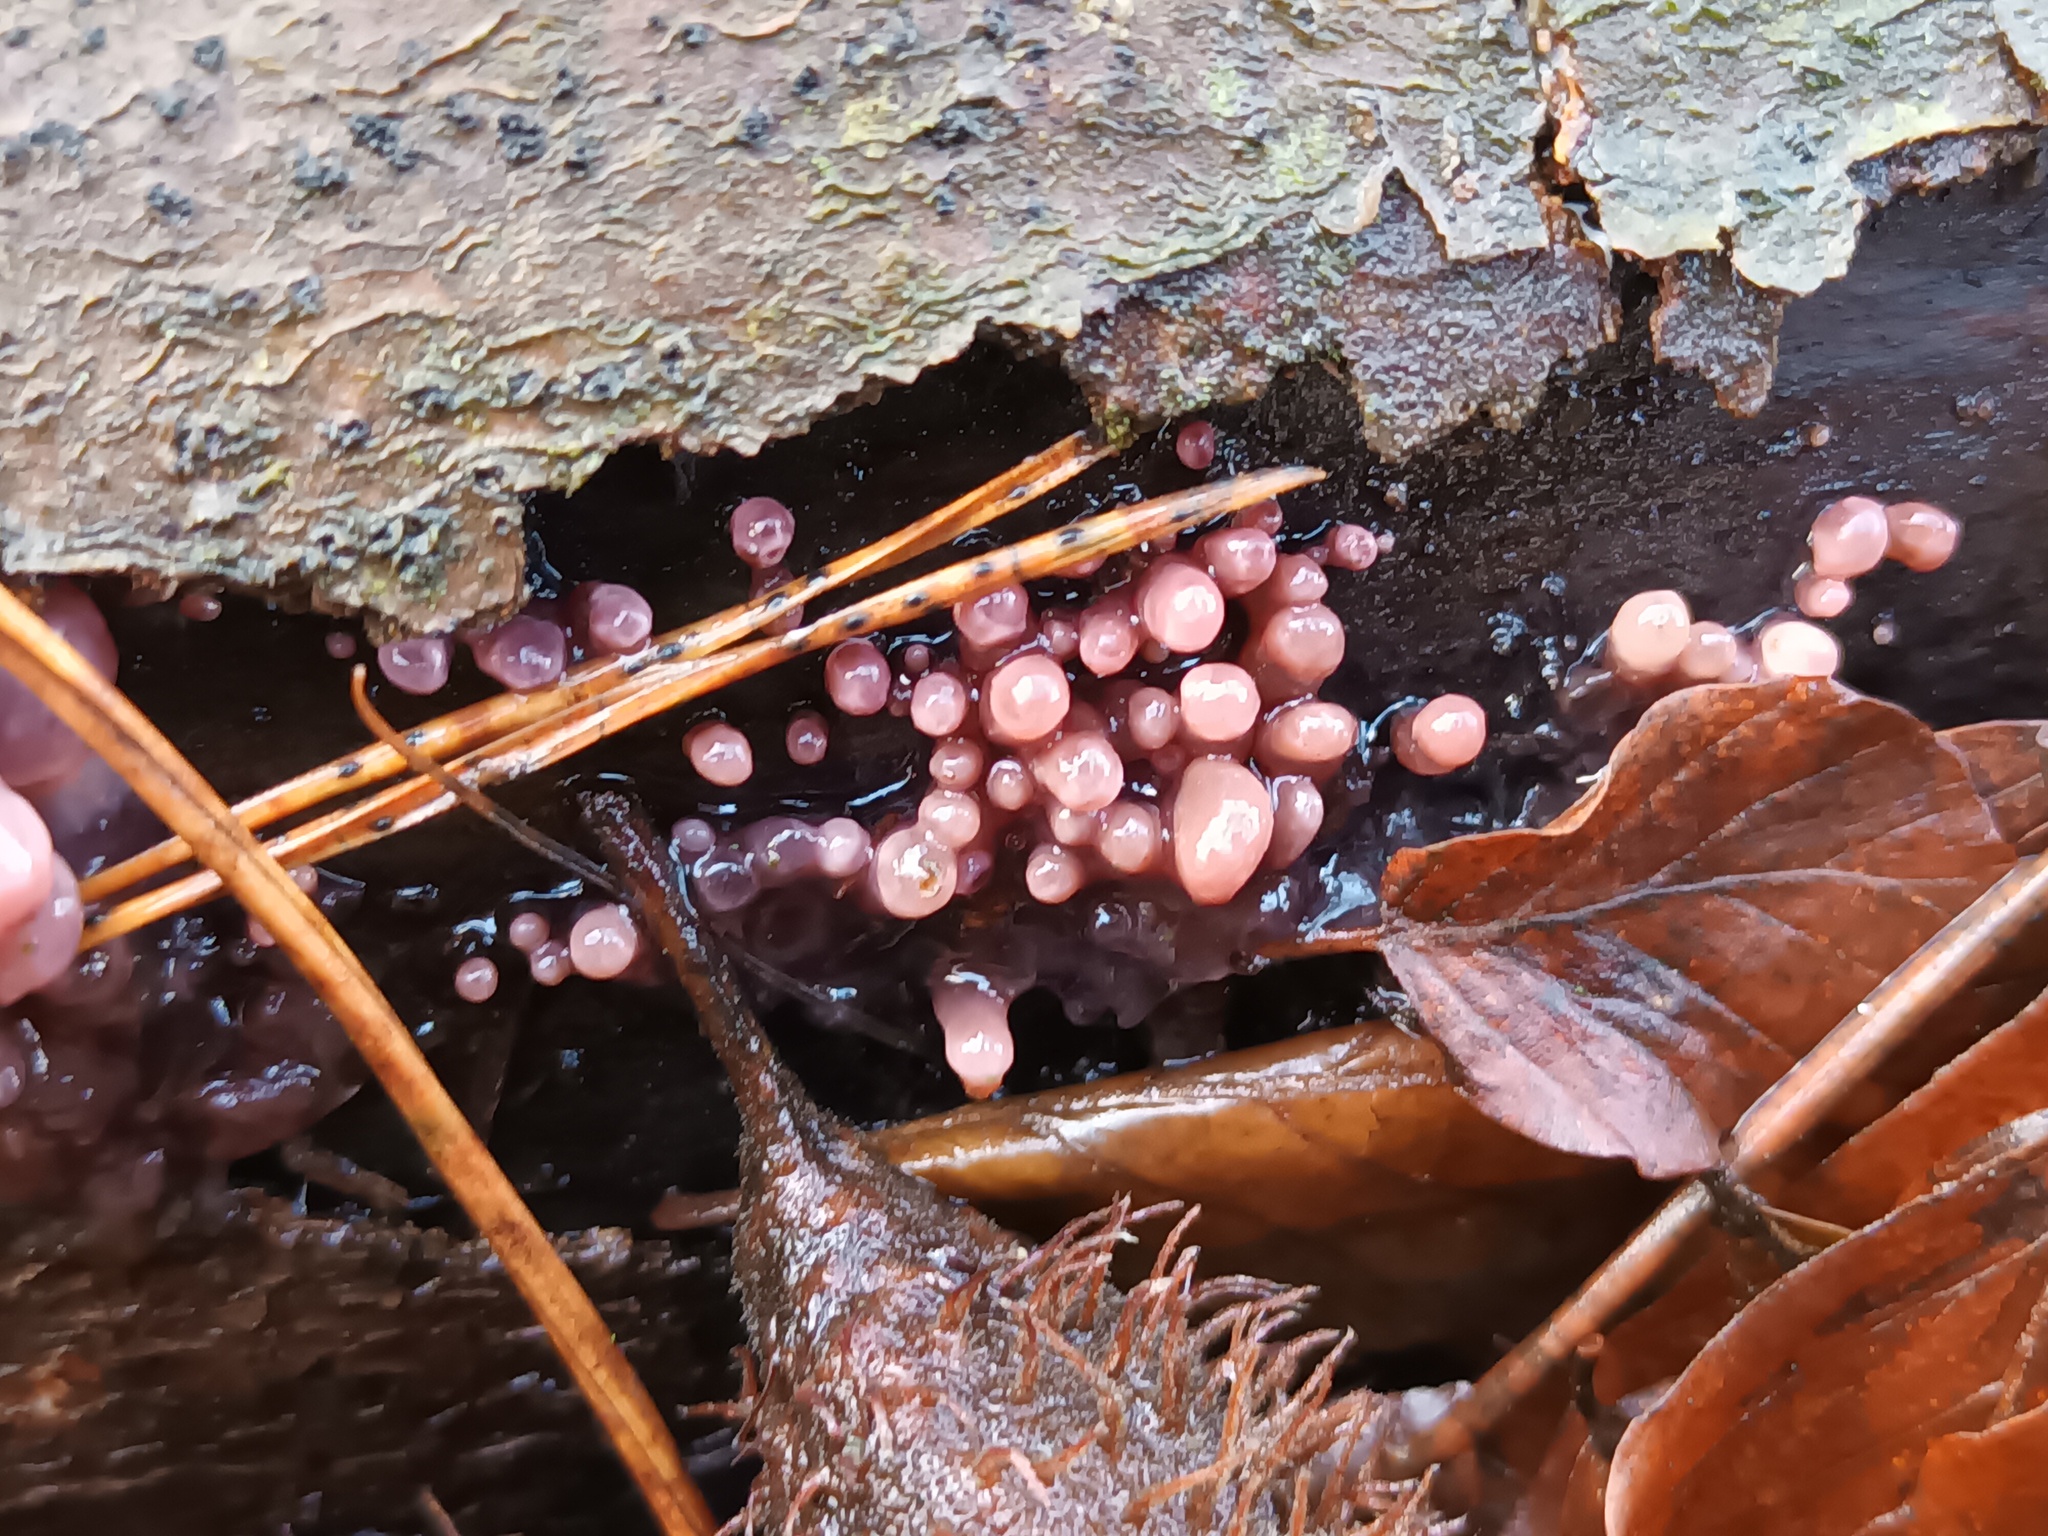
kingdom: Fungi
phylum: Ascomycota
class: Leotiomycetes
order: Helotiales
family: Gelatinodiscaceae
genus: Ascocoryne
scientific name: Ascocoryne sarcoides
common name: Purple jellydisc
